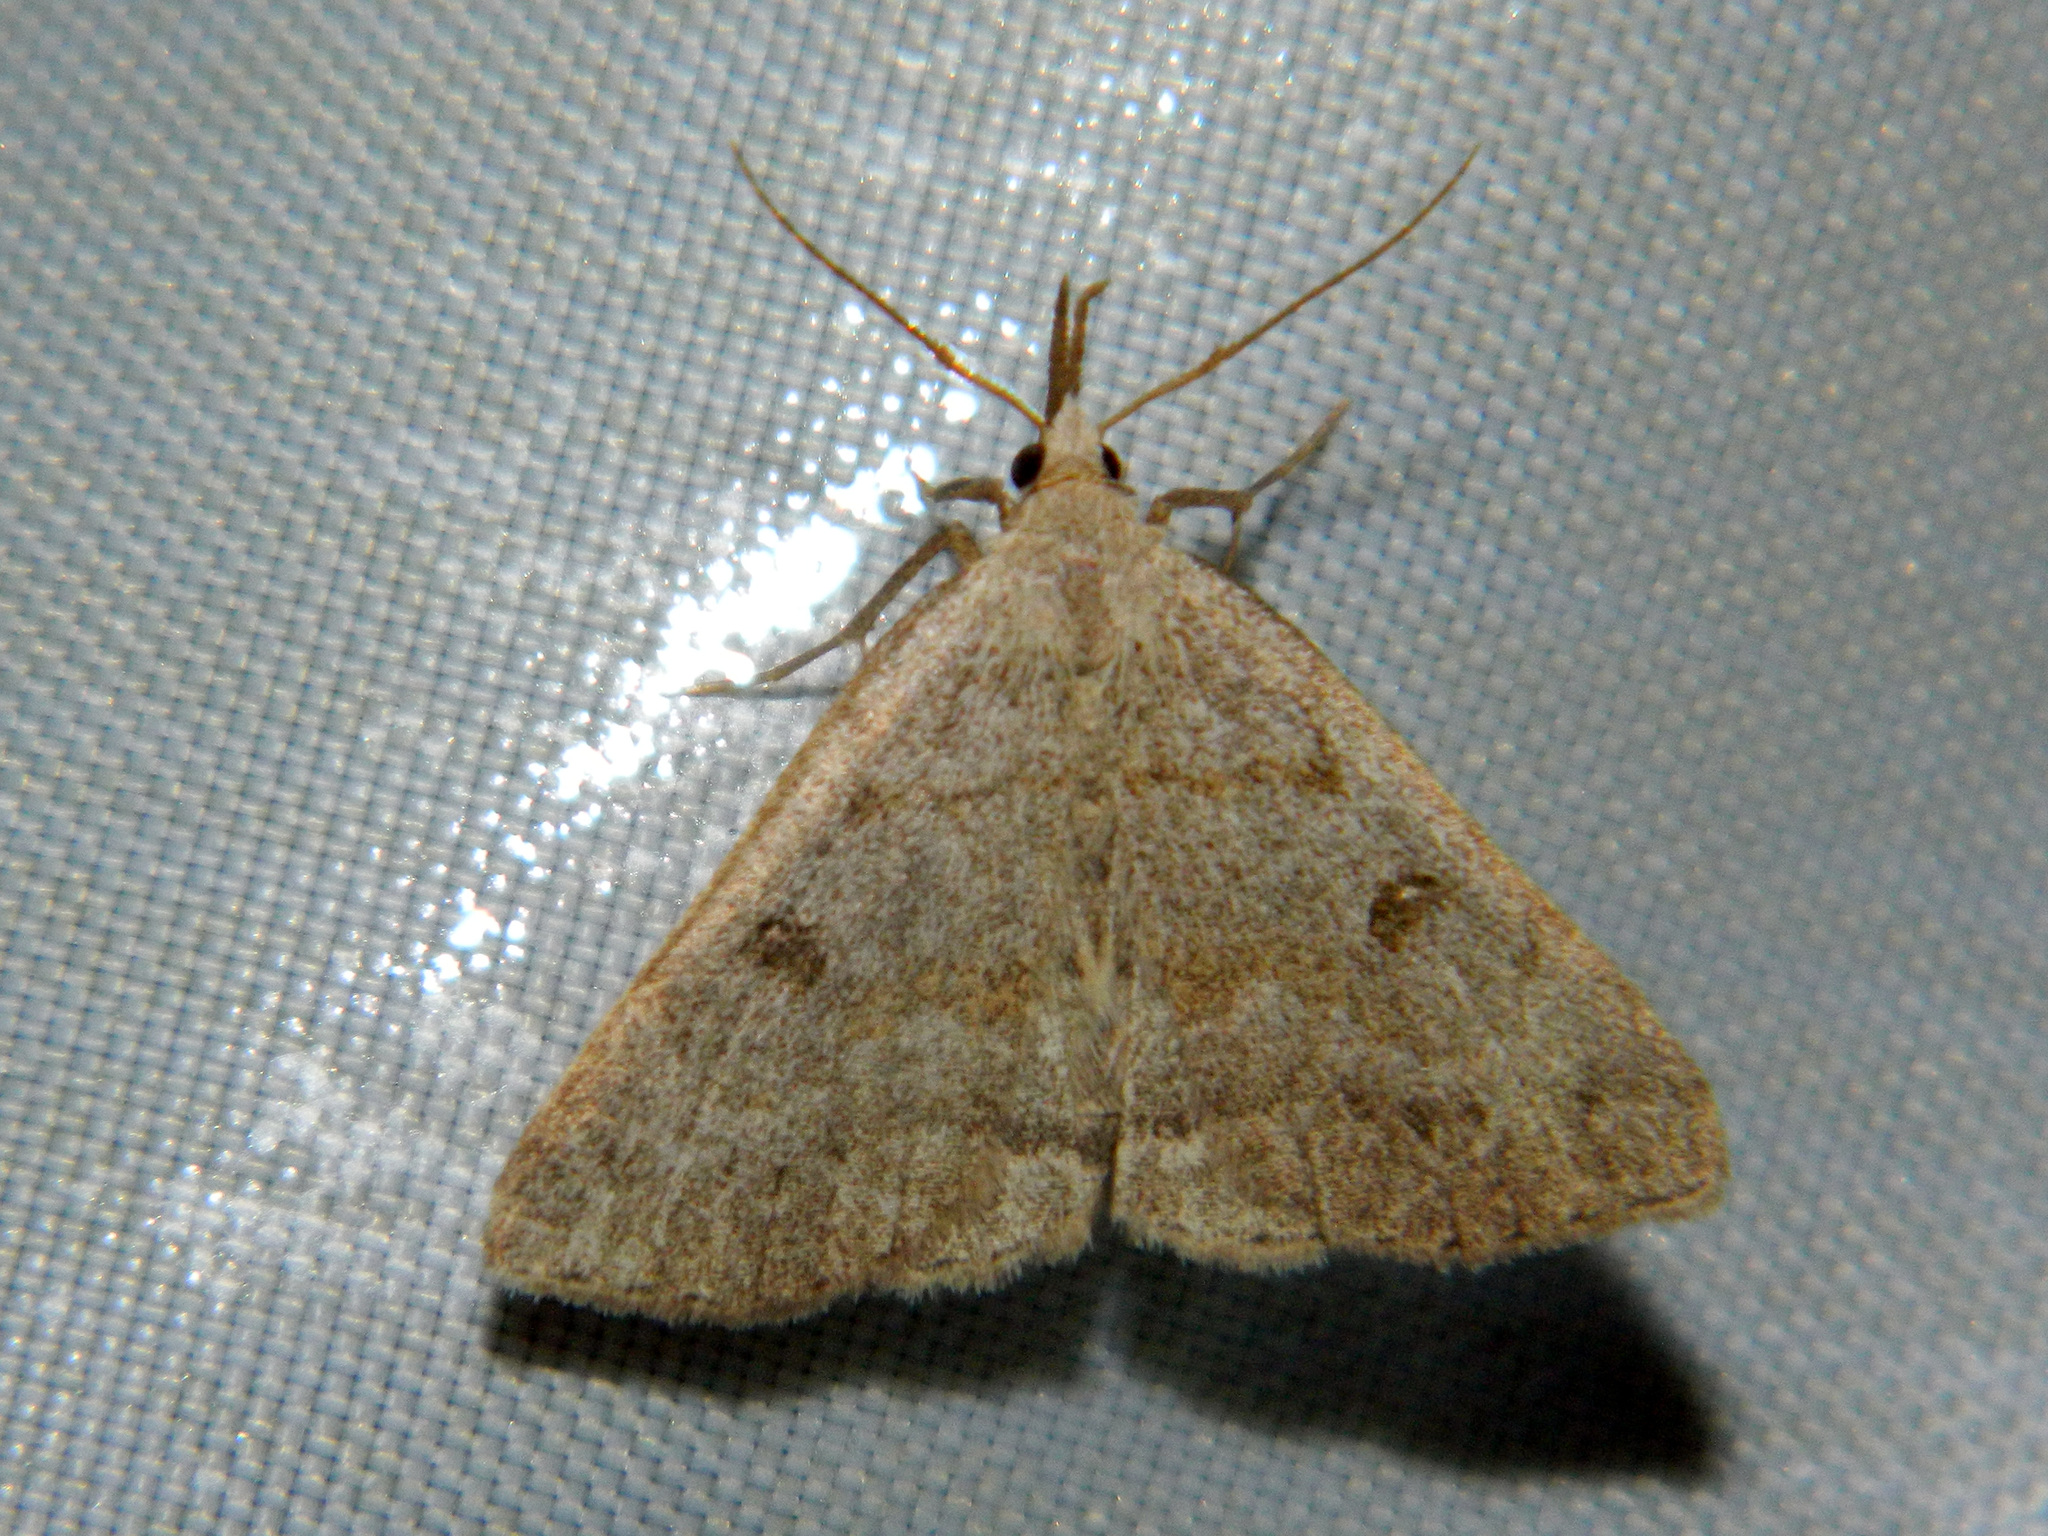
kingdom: Animalia
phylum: Arthropoda
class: Insecta
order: Lepidoptera
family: Erebidae
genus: Macrochilo
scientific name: Macrochilo morbidalis
